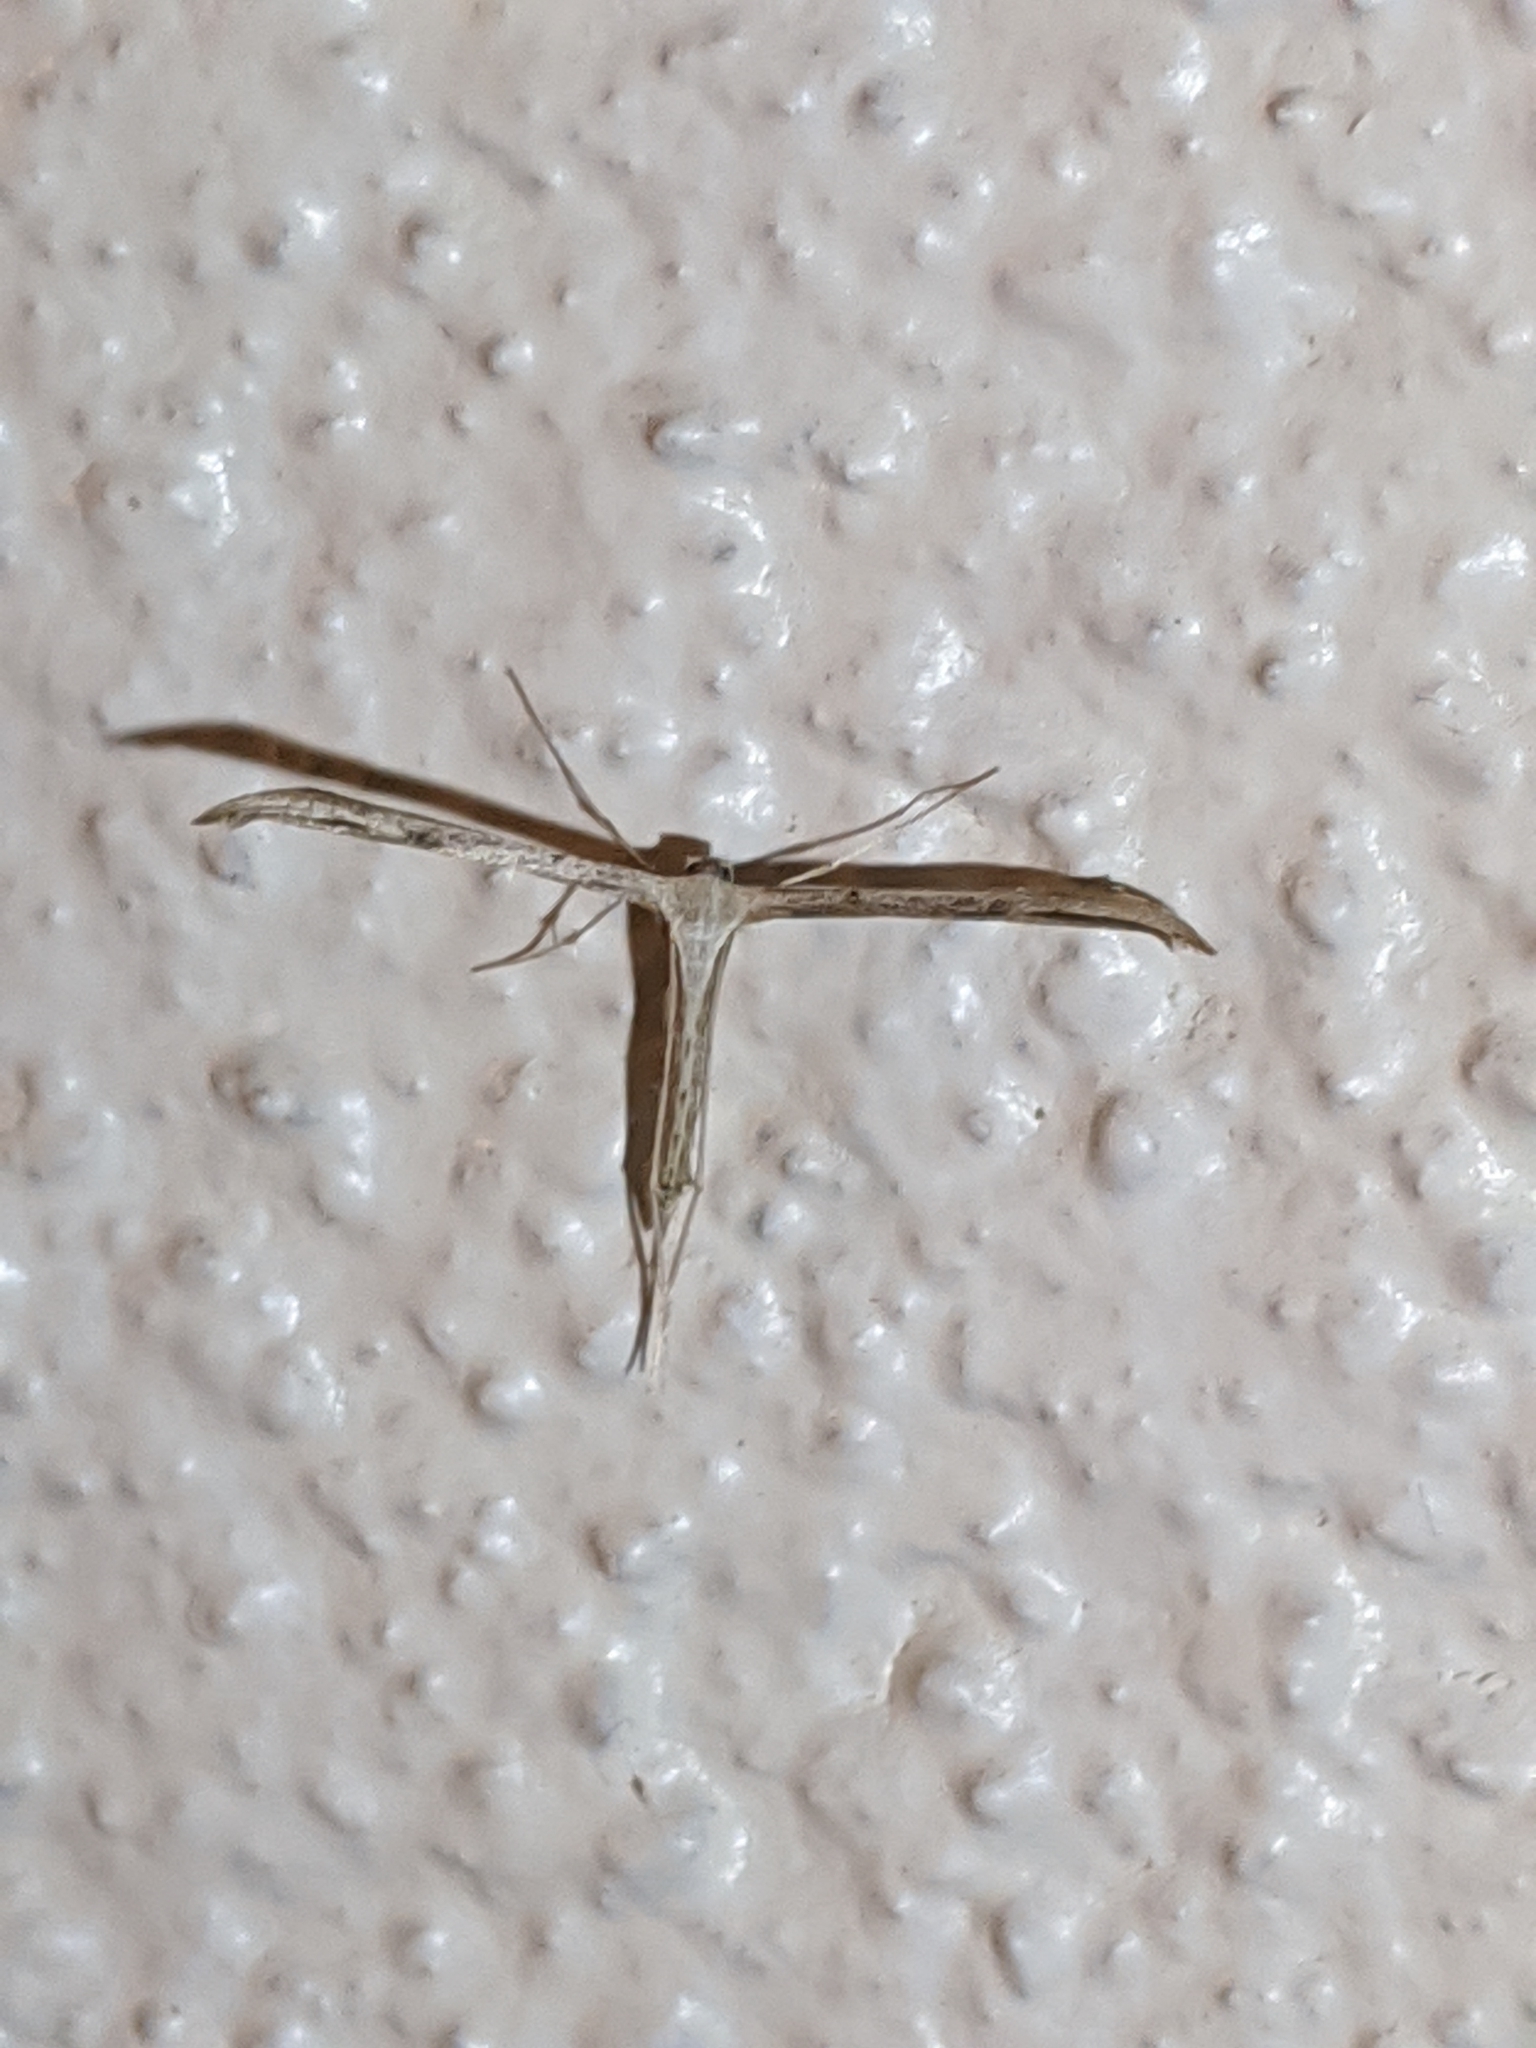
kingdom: Animalia
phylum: Arthropoda
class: Insecta
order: Lepidoptera
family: Pterophoridae
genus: Emmelina
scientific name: Emmelina monodactyla
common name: Common plume
